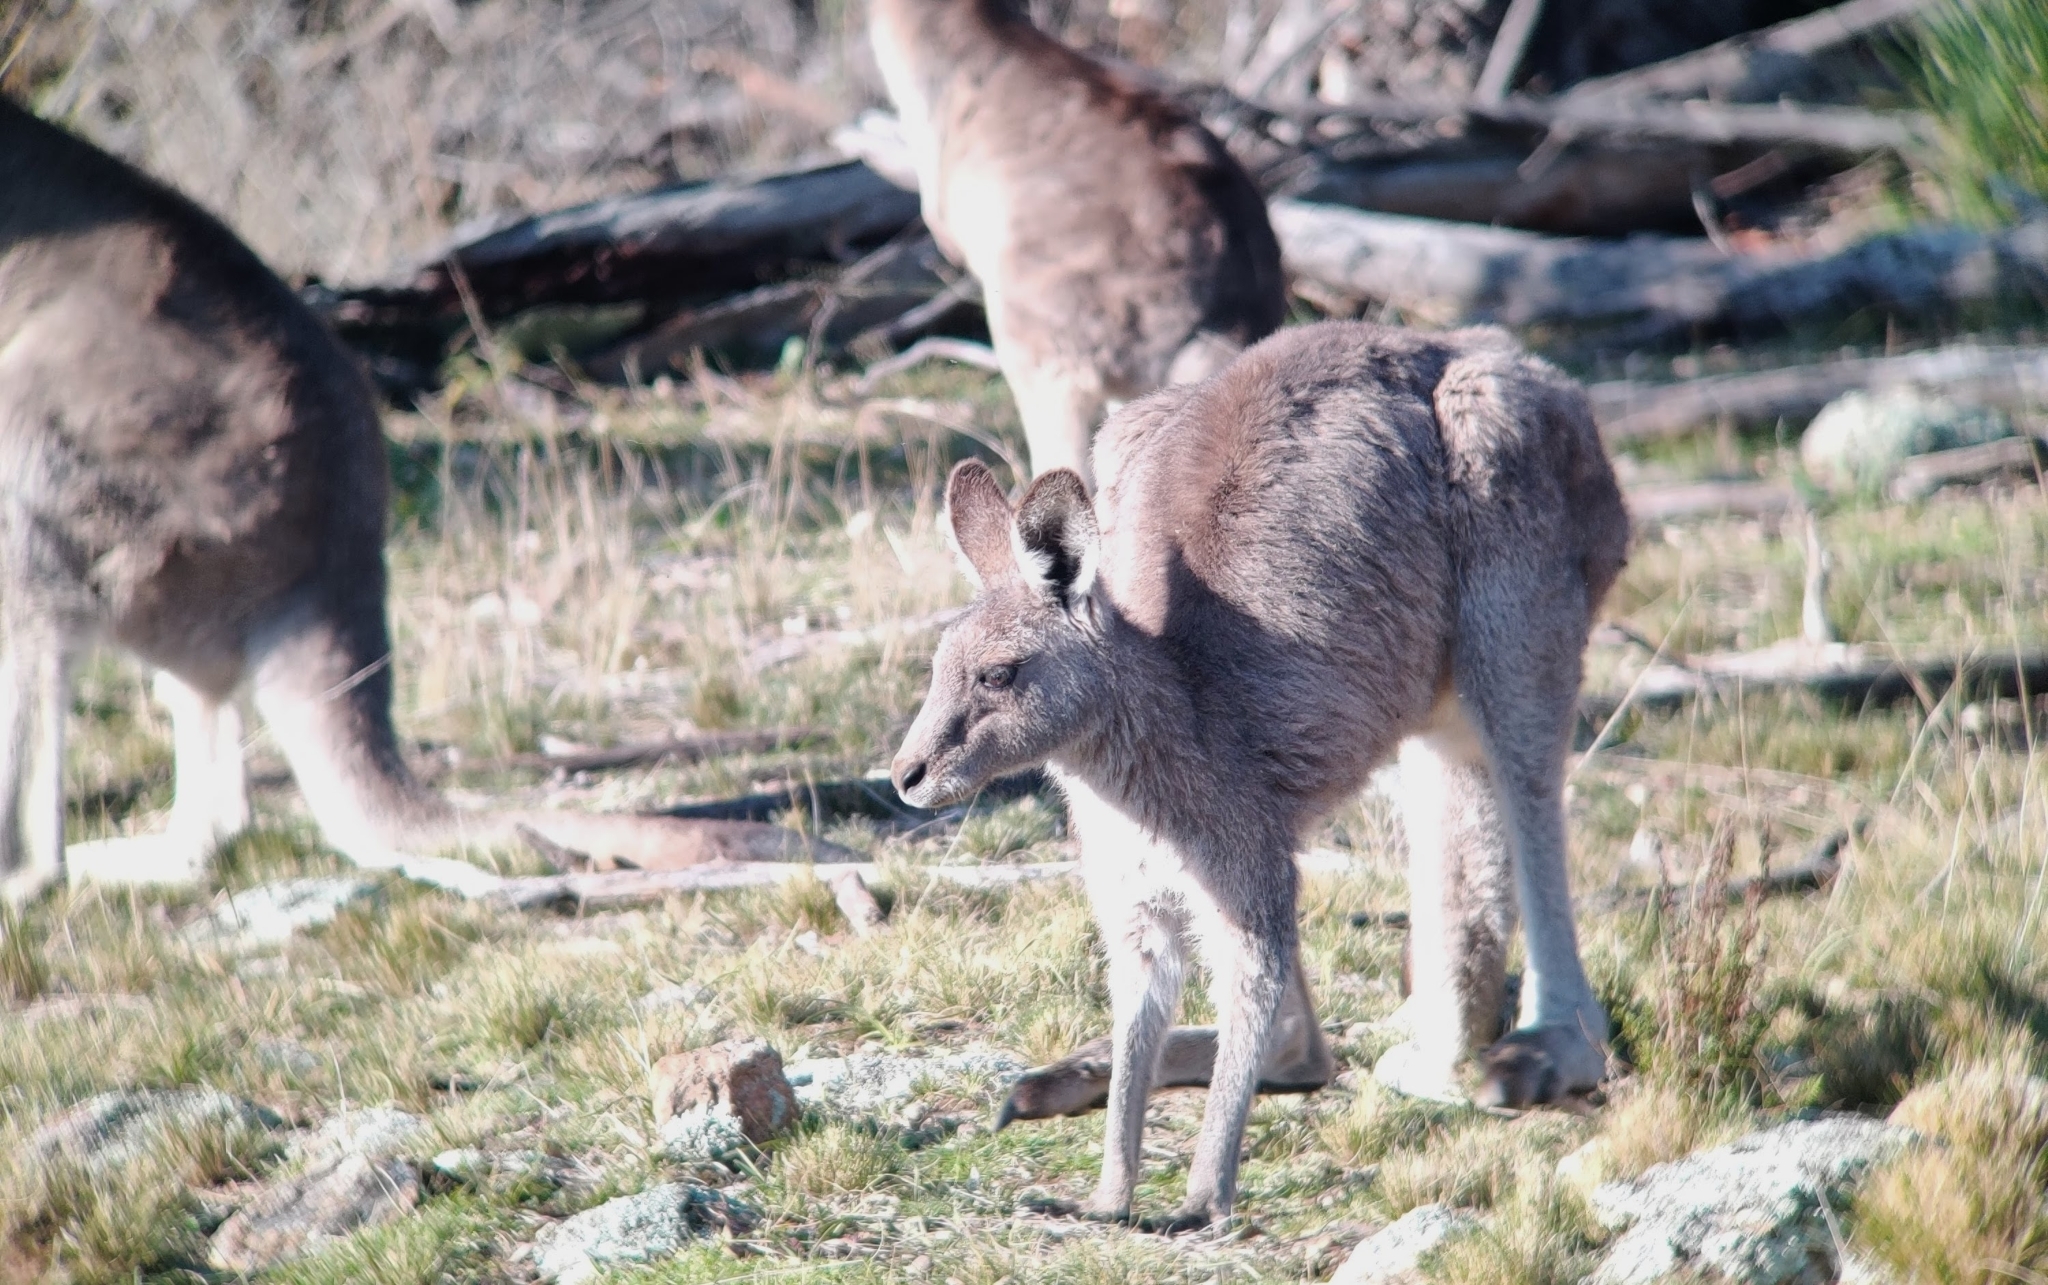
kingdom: Animalia
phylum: Chordata
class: Mammalia
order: Diprotodontia
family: Macropodidae
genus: Macropus
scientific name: Macropus giganteus
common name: Eastern grey kangaroo
